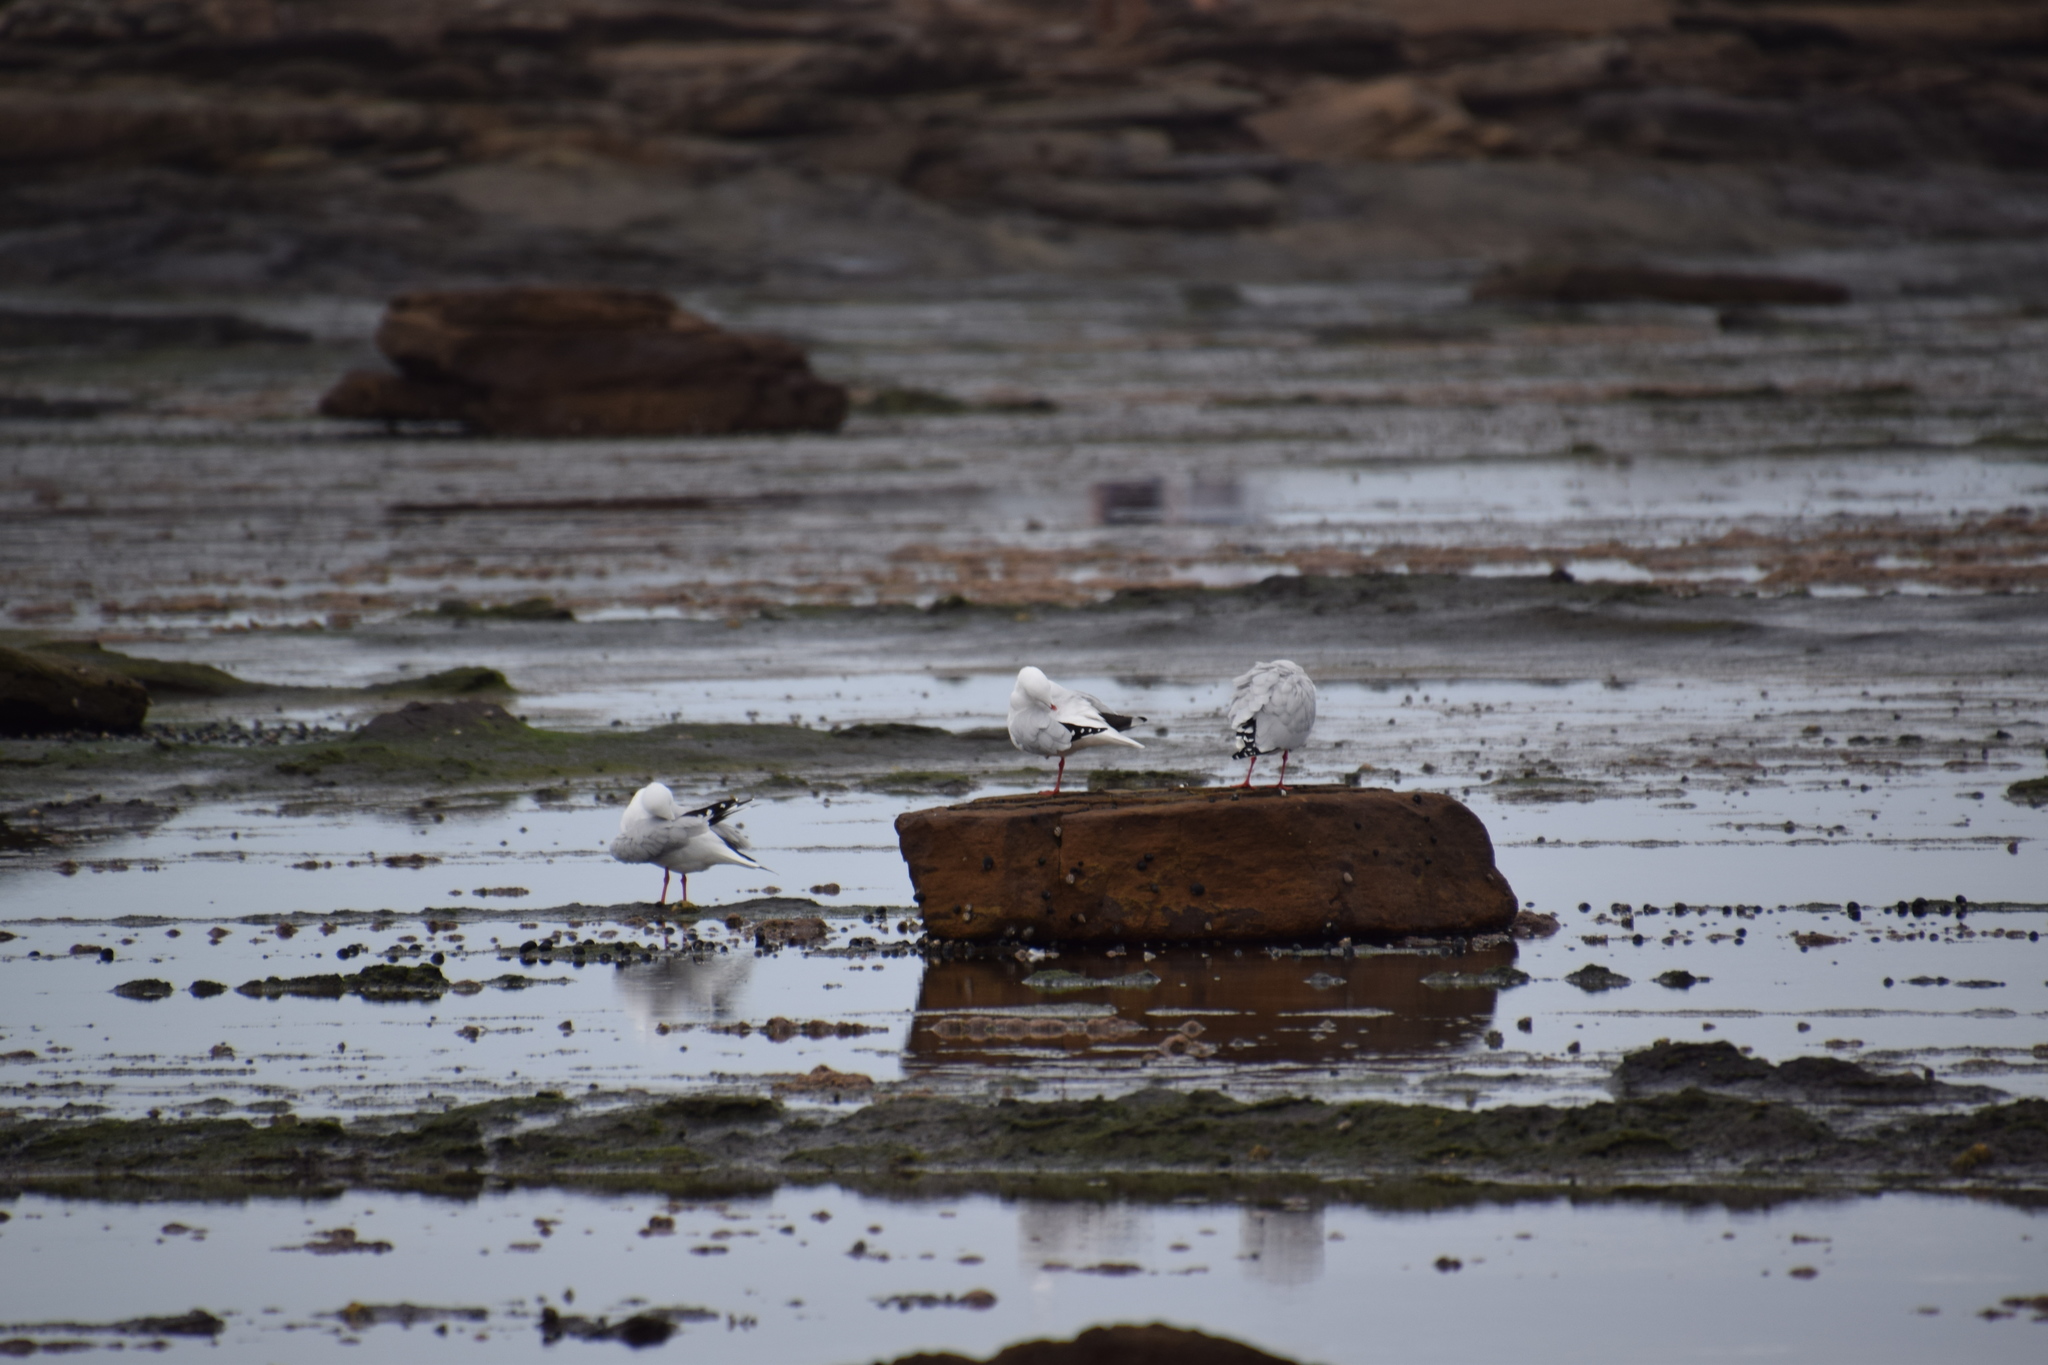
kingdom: Animalia
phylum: Chordata
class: Aves
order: Charadriiformes
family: Laridae
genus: Chroicocephalus
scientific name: Chroicocephalus novaehollandiae
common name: Silver gull
